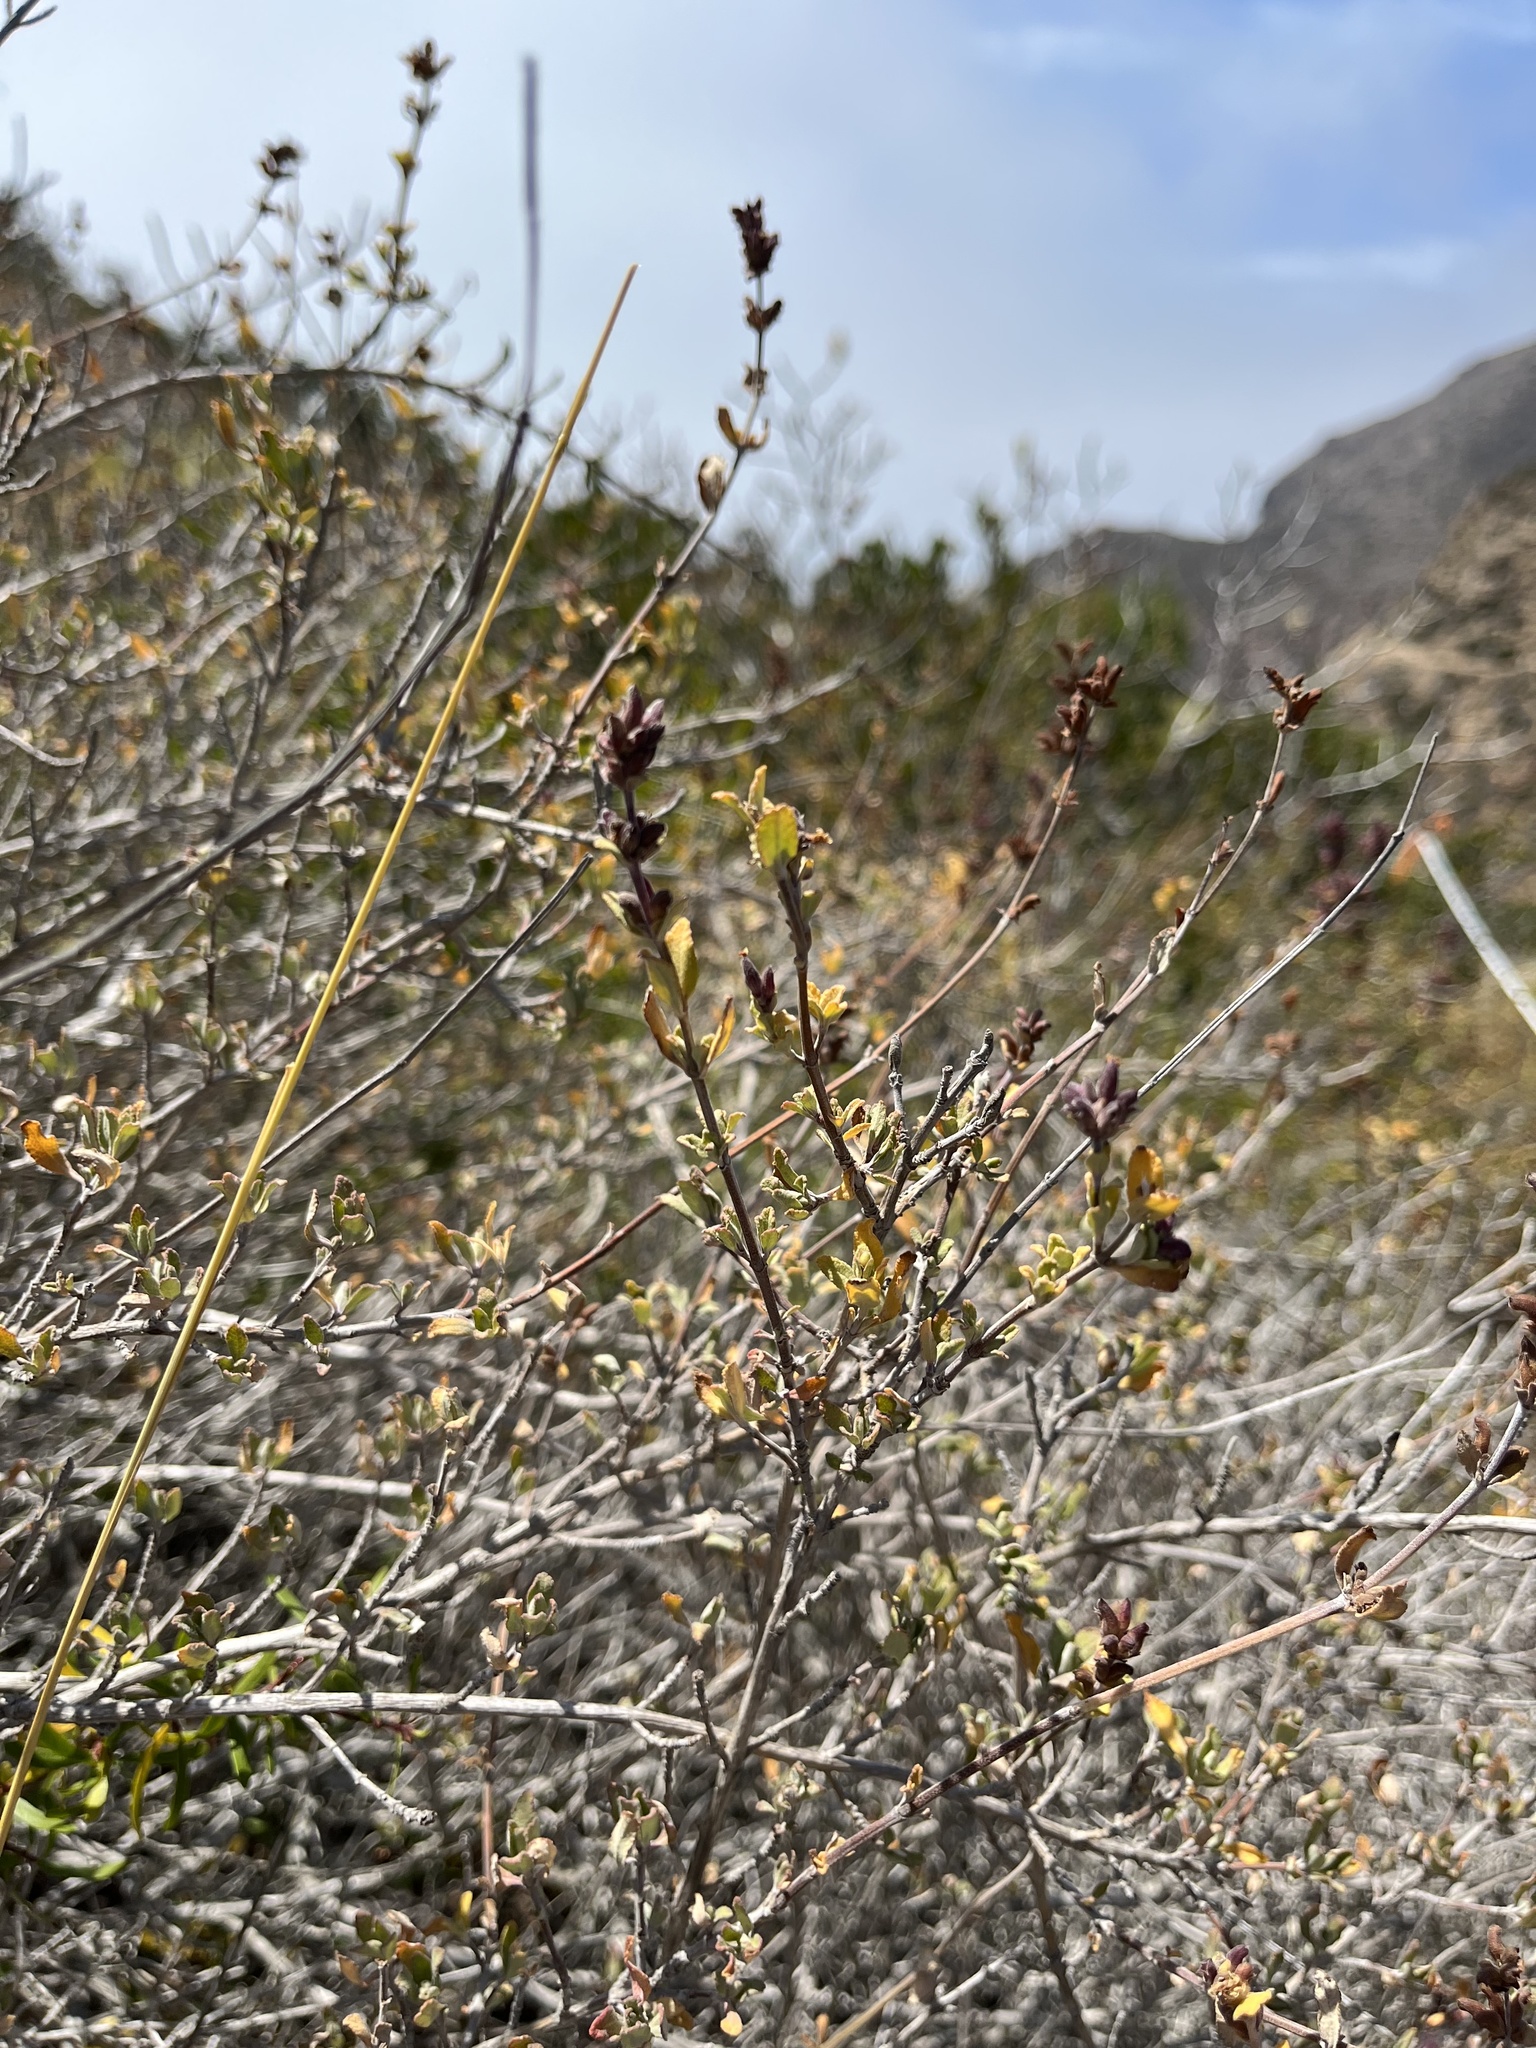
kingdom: Plantae
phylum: Tracheophyta
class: Magnoliopsida
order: Lamiales
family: Lamiaceae
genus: Salvia
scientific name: Salvia munzii
